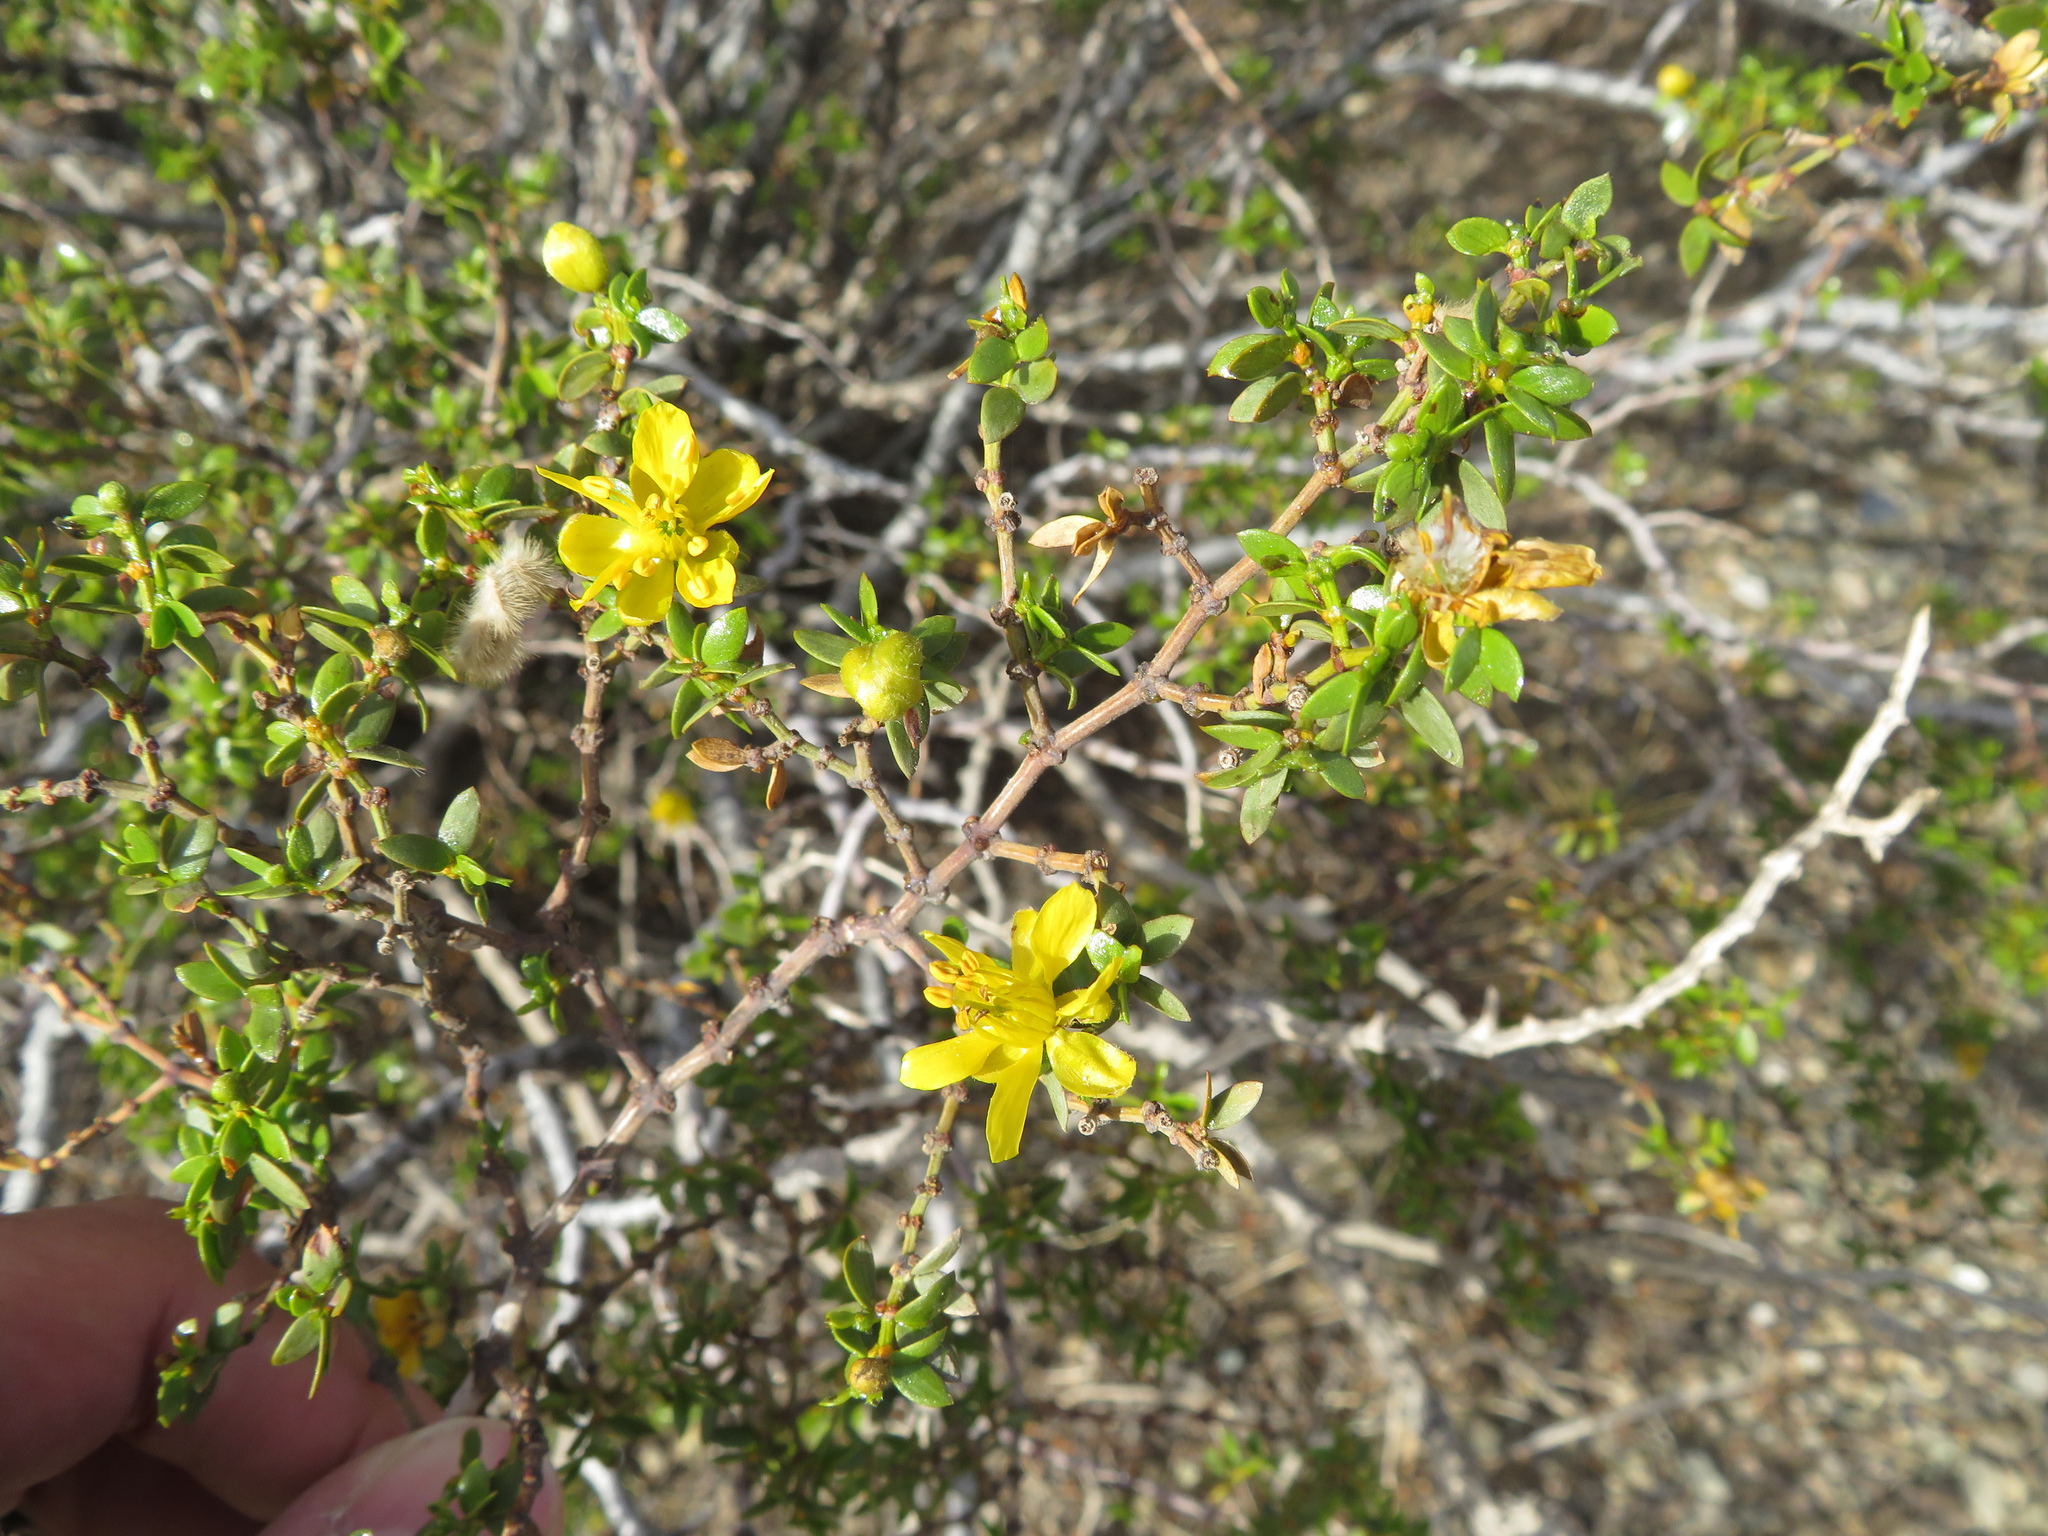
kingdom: Plantae
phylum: Tracheophyta
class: Magnoliopsida
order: Zygophyllales
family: Zygophyllaceae
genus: Larrea
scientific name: Larrea divaricata
